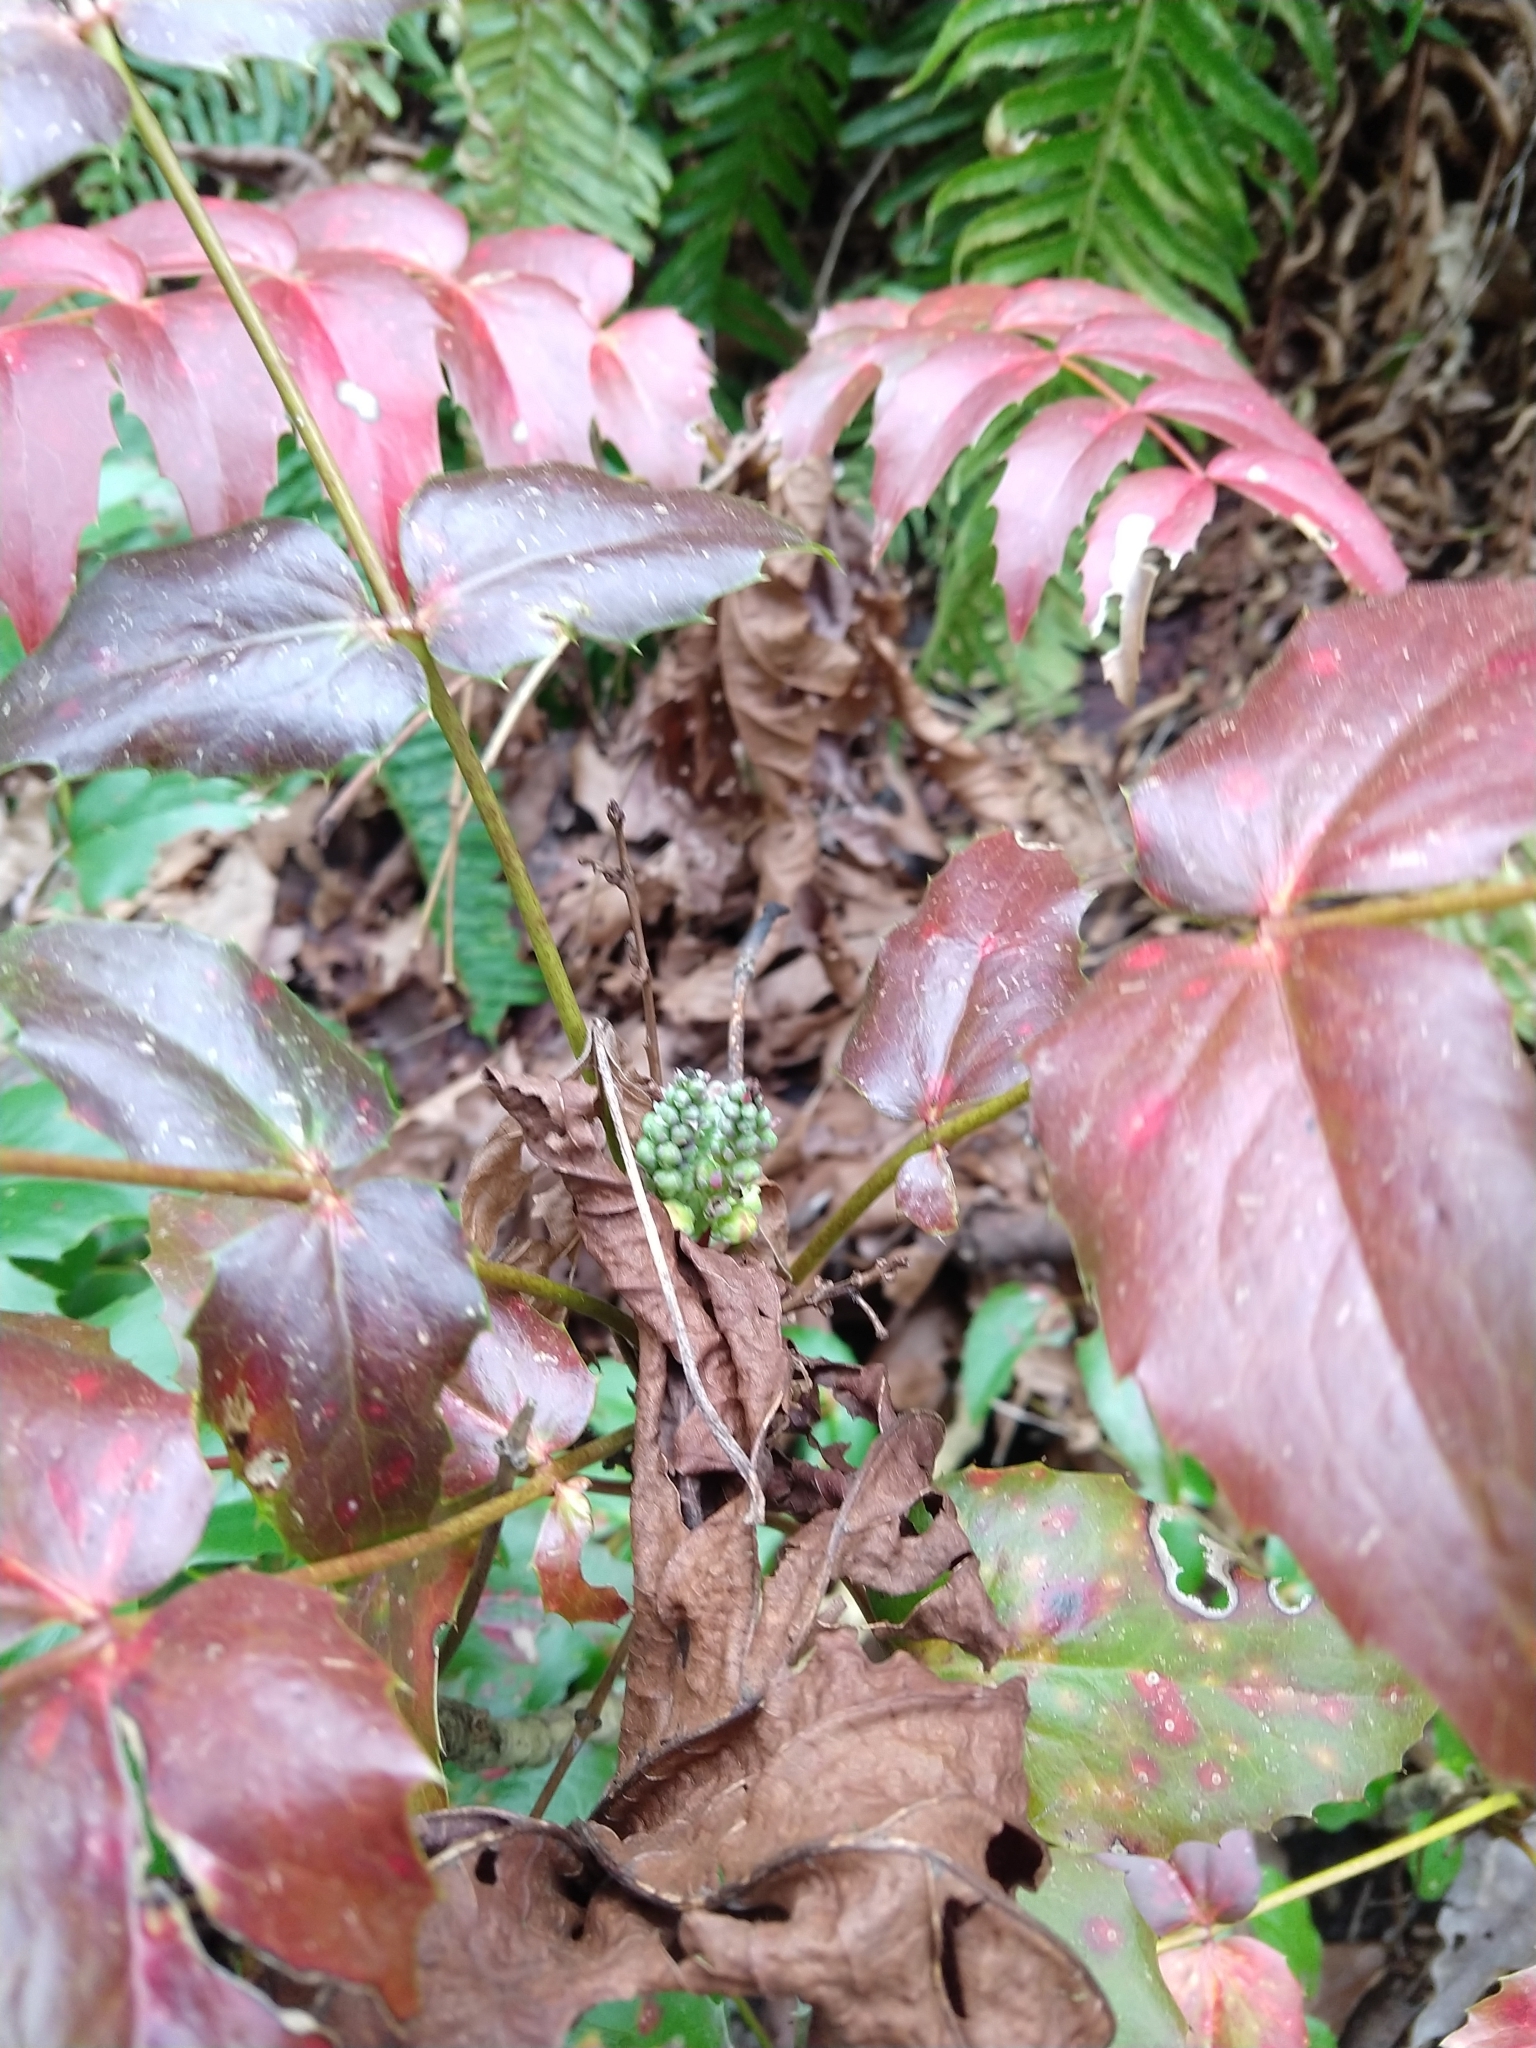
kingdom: Plantae
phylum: Tracheophyta
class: Magnoliopsida
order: Ranunculales
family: Berberidaceae
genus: Mahonia
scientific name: Mahonia nervosa
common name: Cascade oregon-grape
